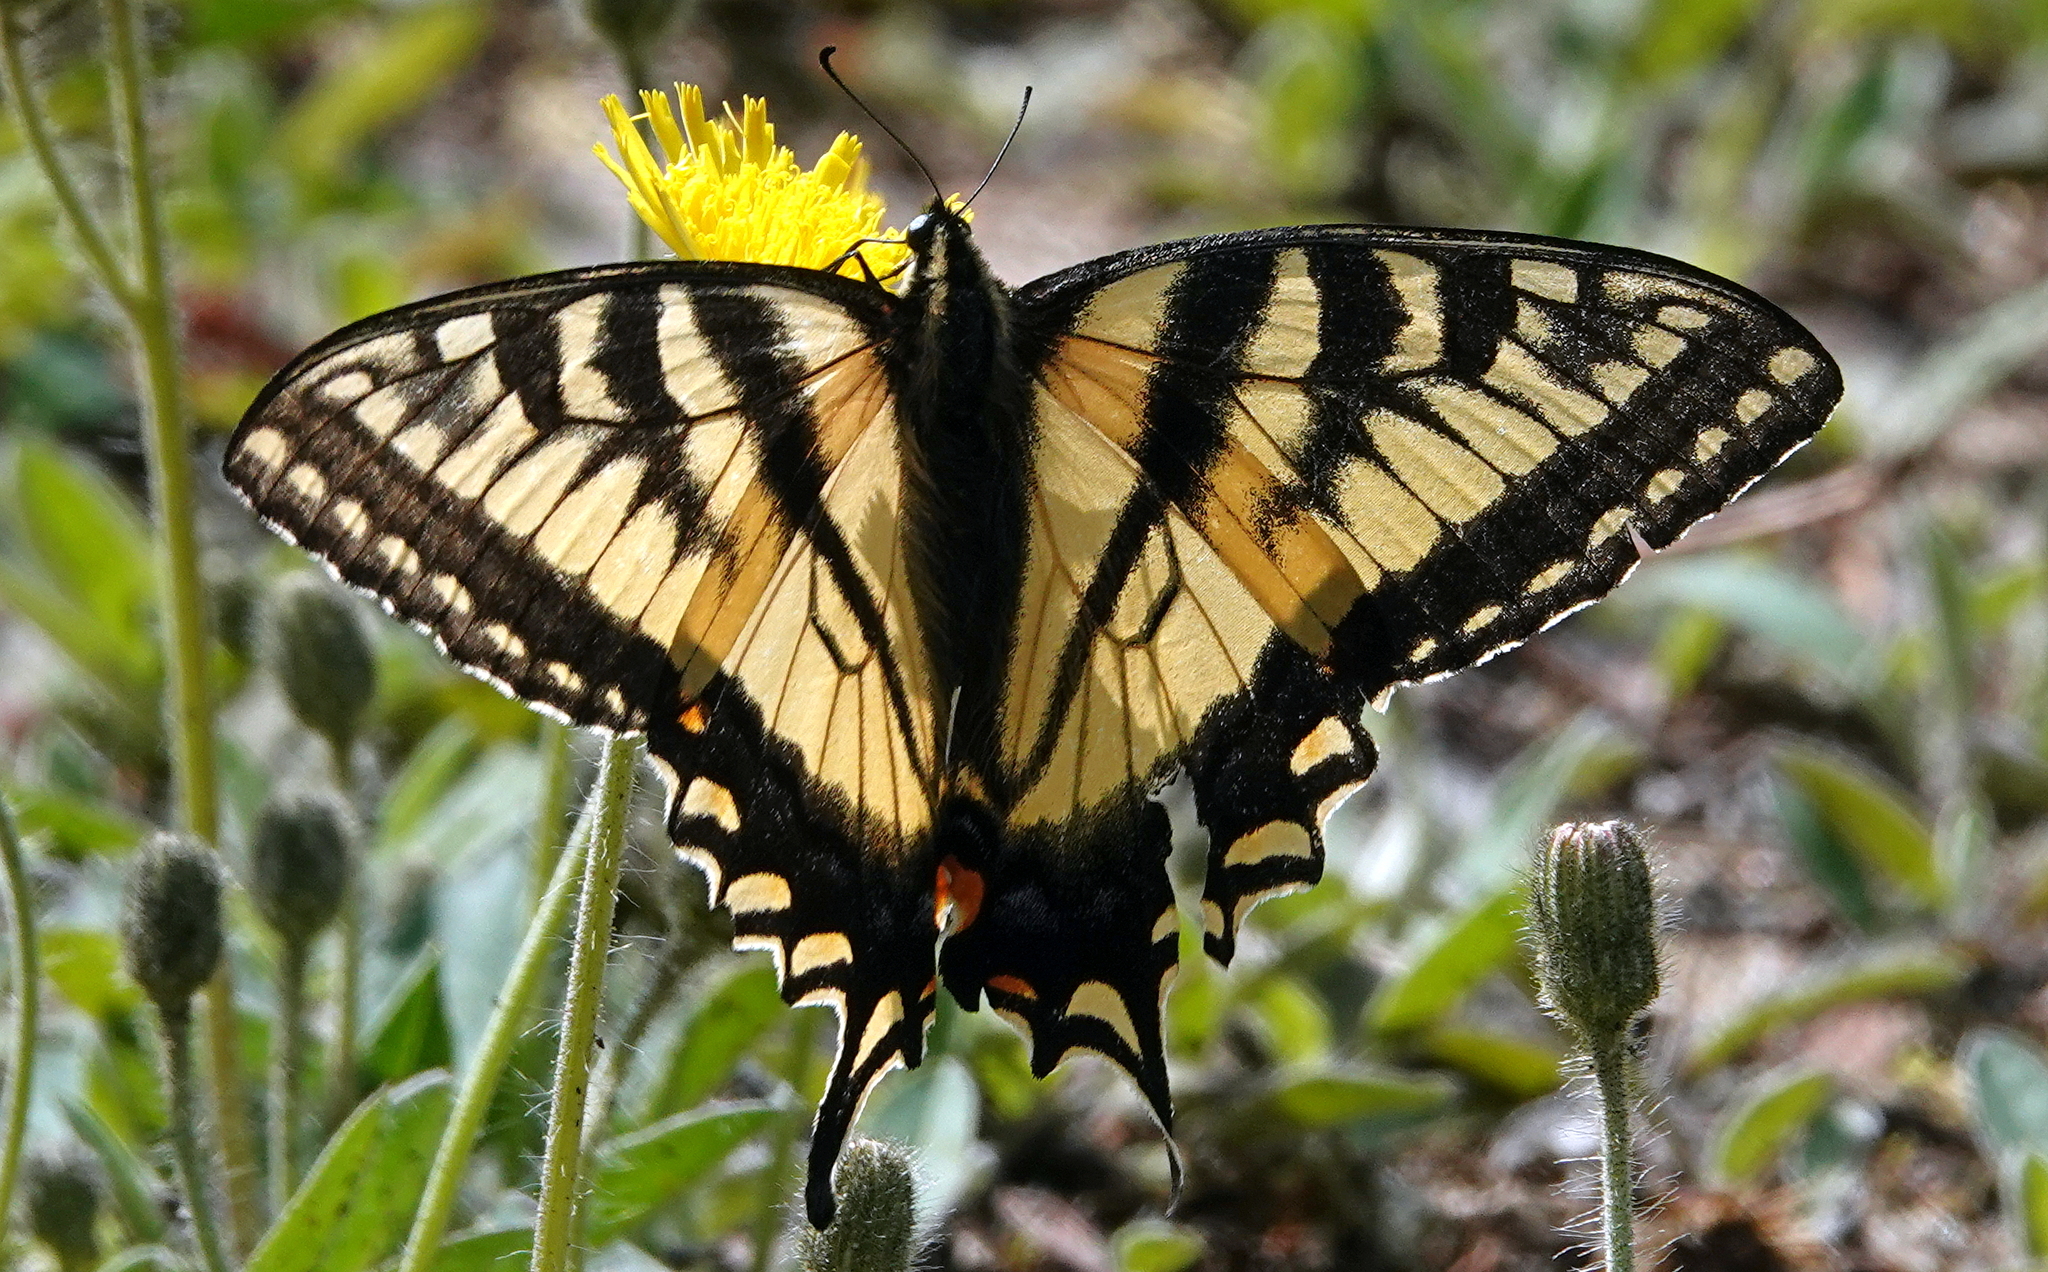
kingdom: Animalia
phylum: Arthropoda
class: Insecta
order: Lepidoptera
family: Papilionidae
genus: Papilio
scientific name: Papilio canadensis
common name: Canadian tiger swallowtail
